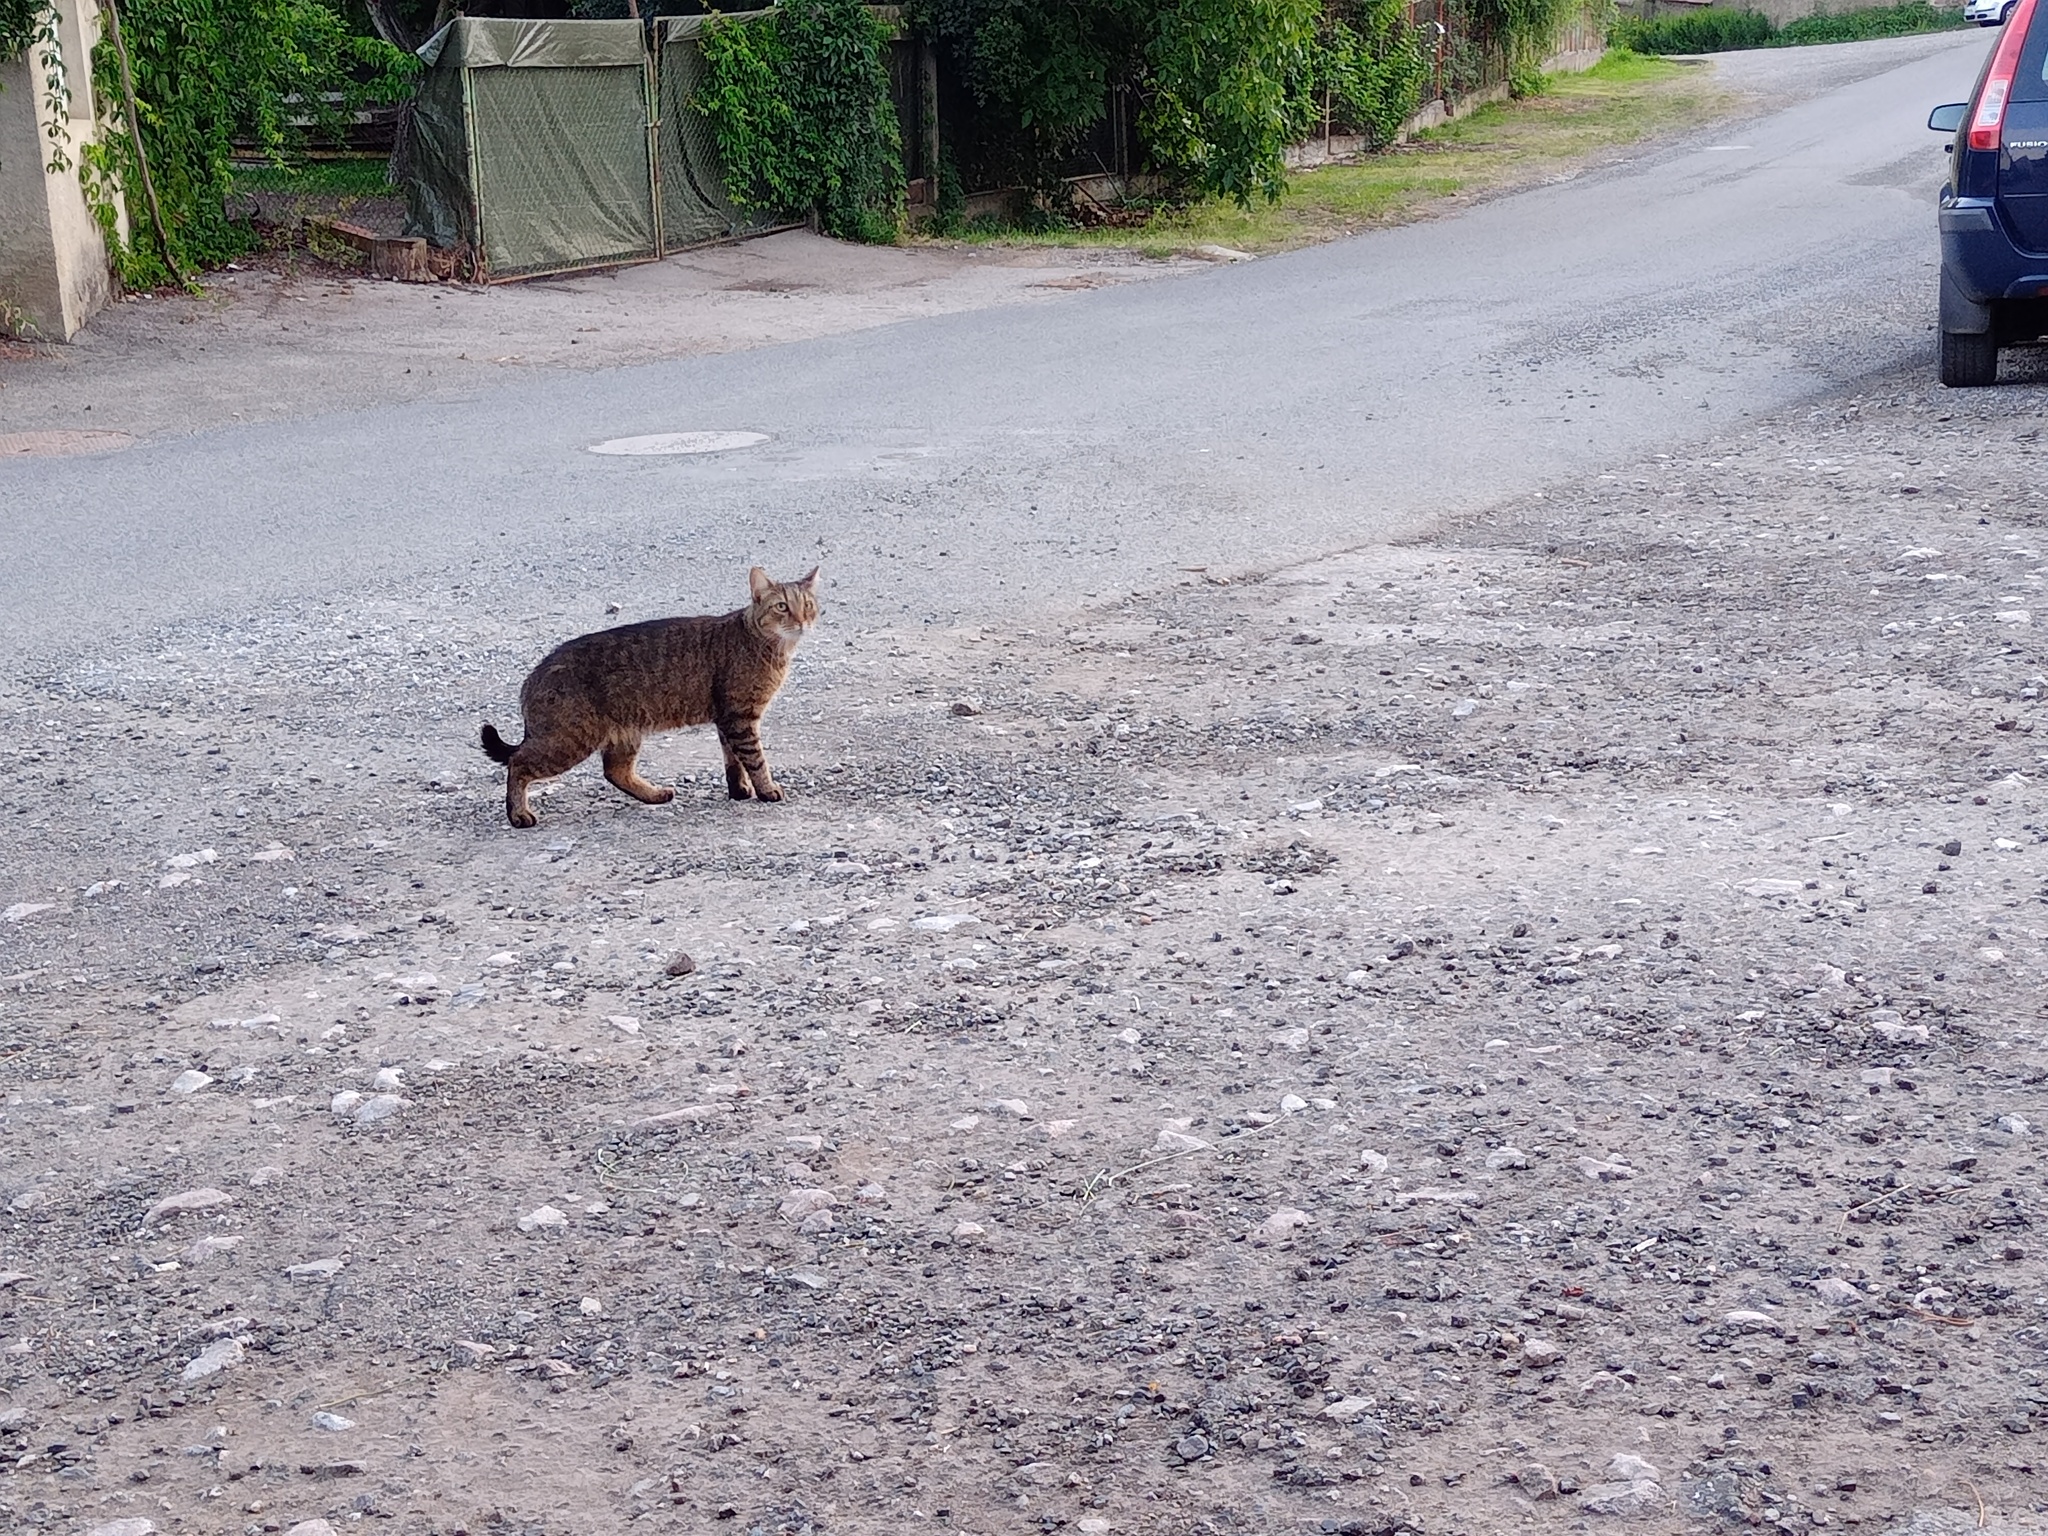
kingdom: Animalia
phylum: Chordata
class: Mammalia
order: Carnivora
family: Felidae
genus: Felis
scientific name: Felis catus
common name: Domestic cat
